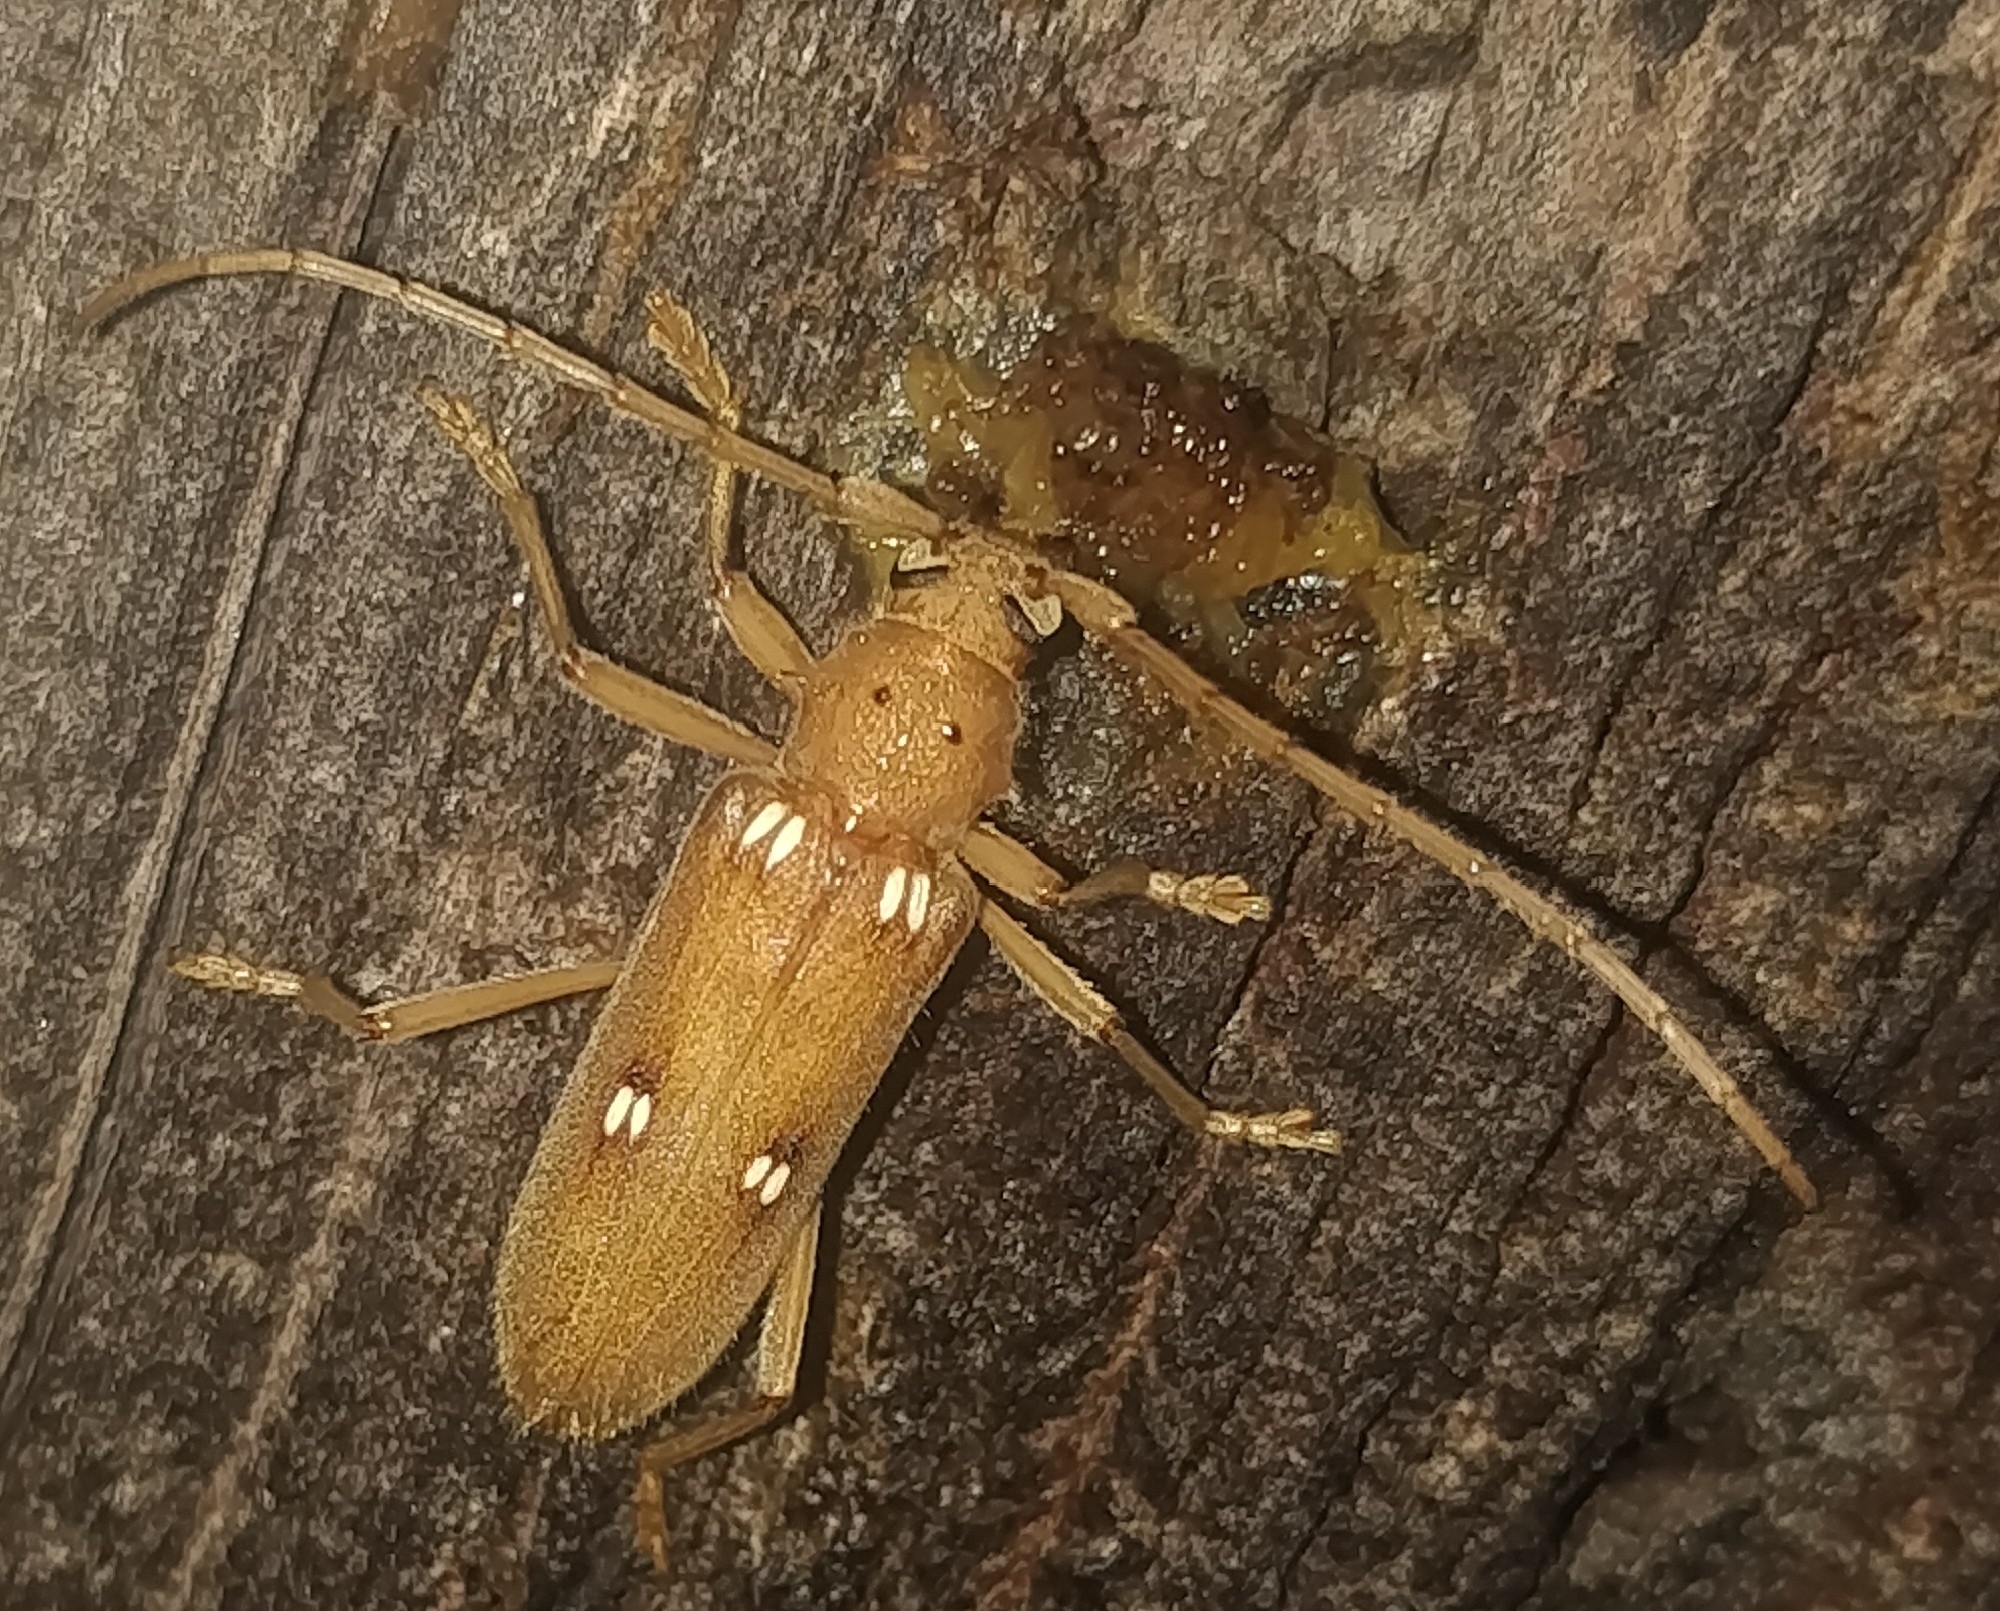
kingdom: Animalia
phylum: Arthropoda
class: Insecta
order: Coleoptera
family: Cerambycidae
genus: Eburia
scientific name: Eburia quadrigeminata
